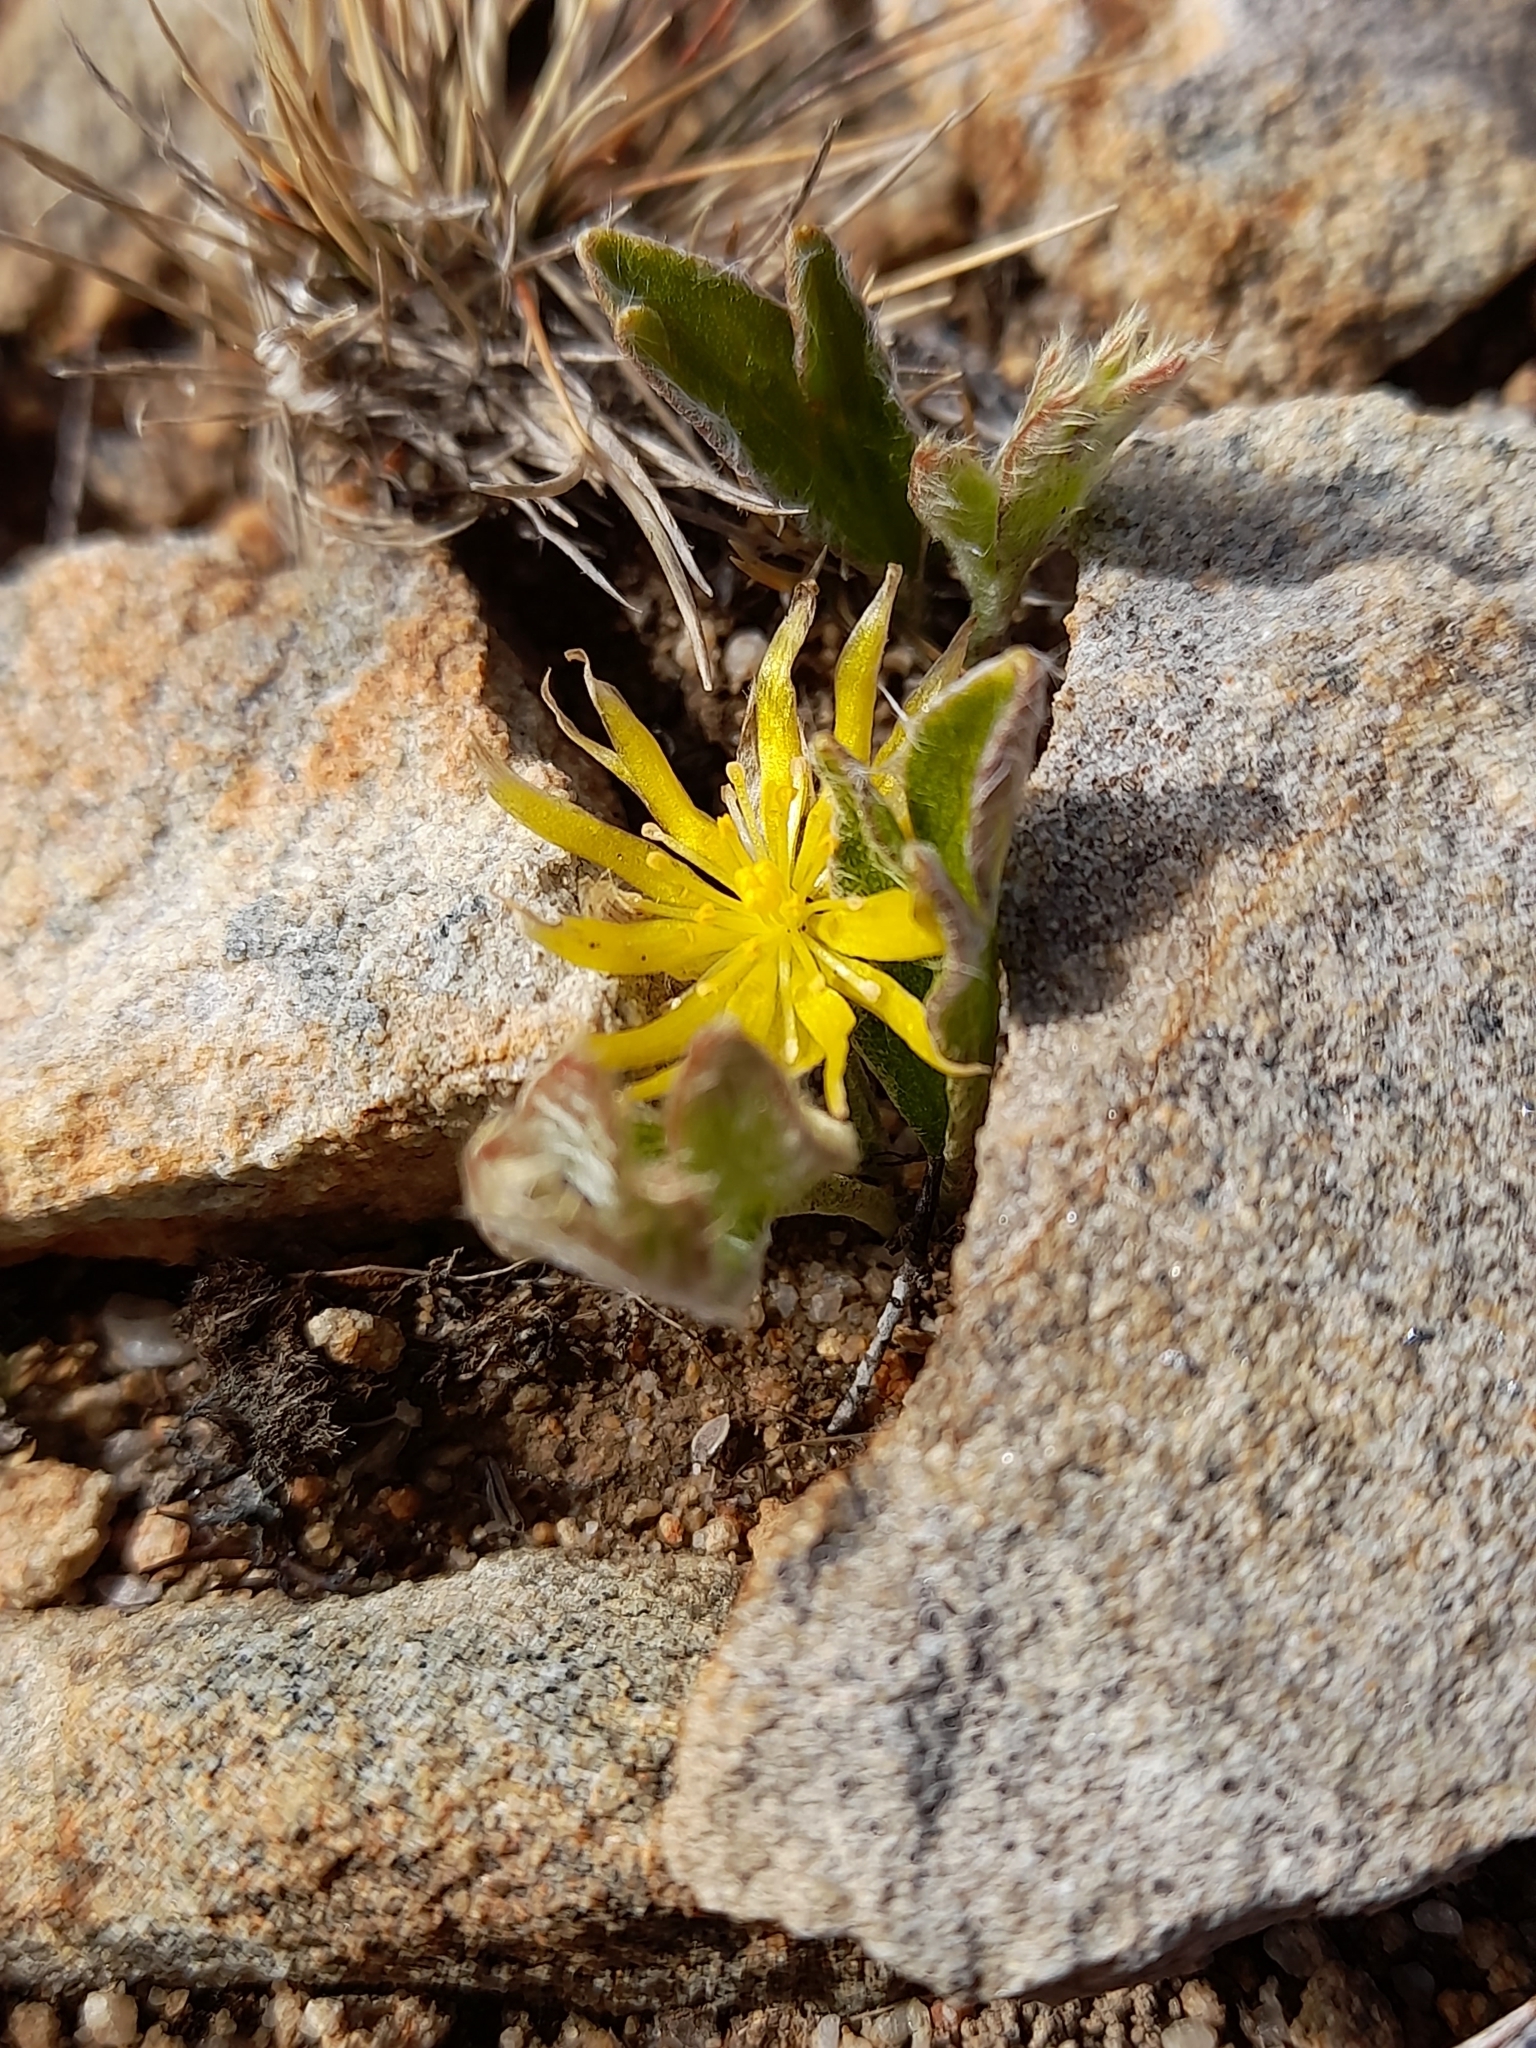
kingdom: Plantae
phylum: Tracheophyta
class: Magnoliopsida
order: Ranunculales
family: Ranunculaceae
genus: Hamadryas
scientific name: Hamadryas argentea
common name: Silvery buttercup
